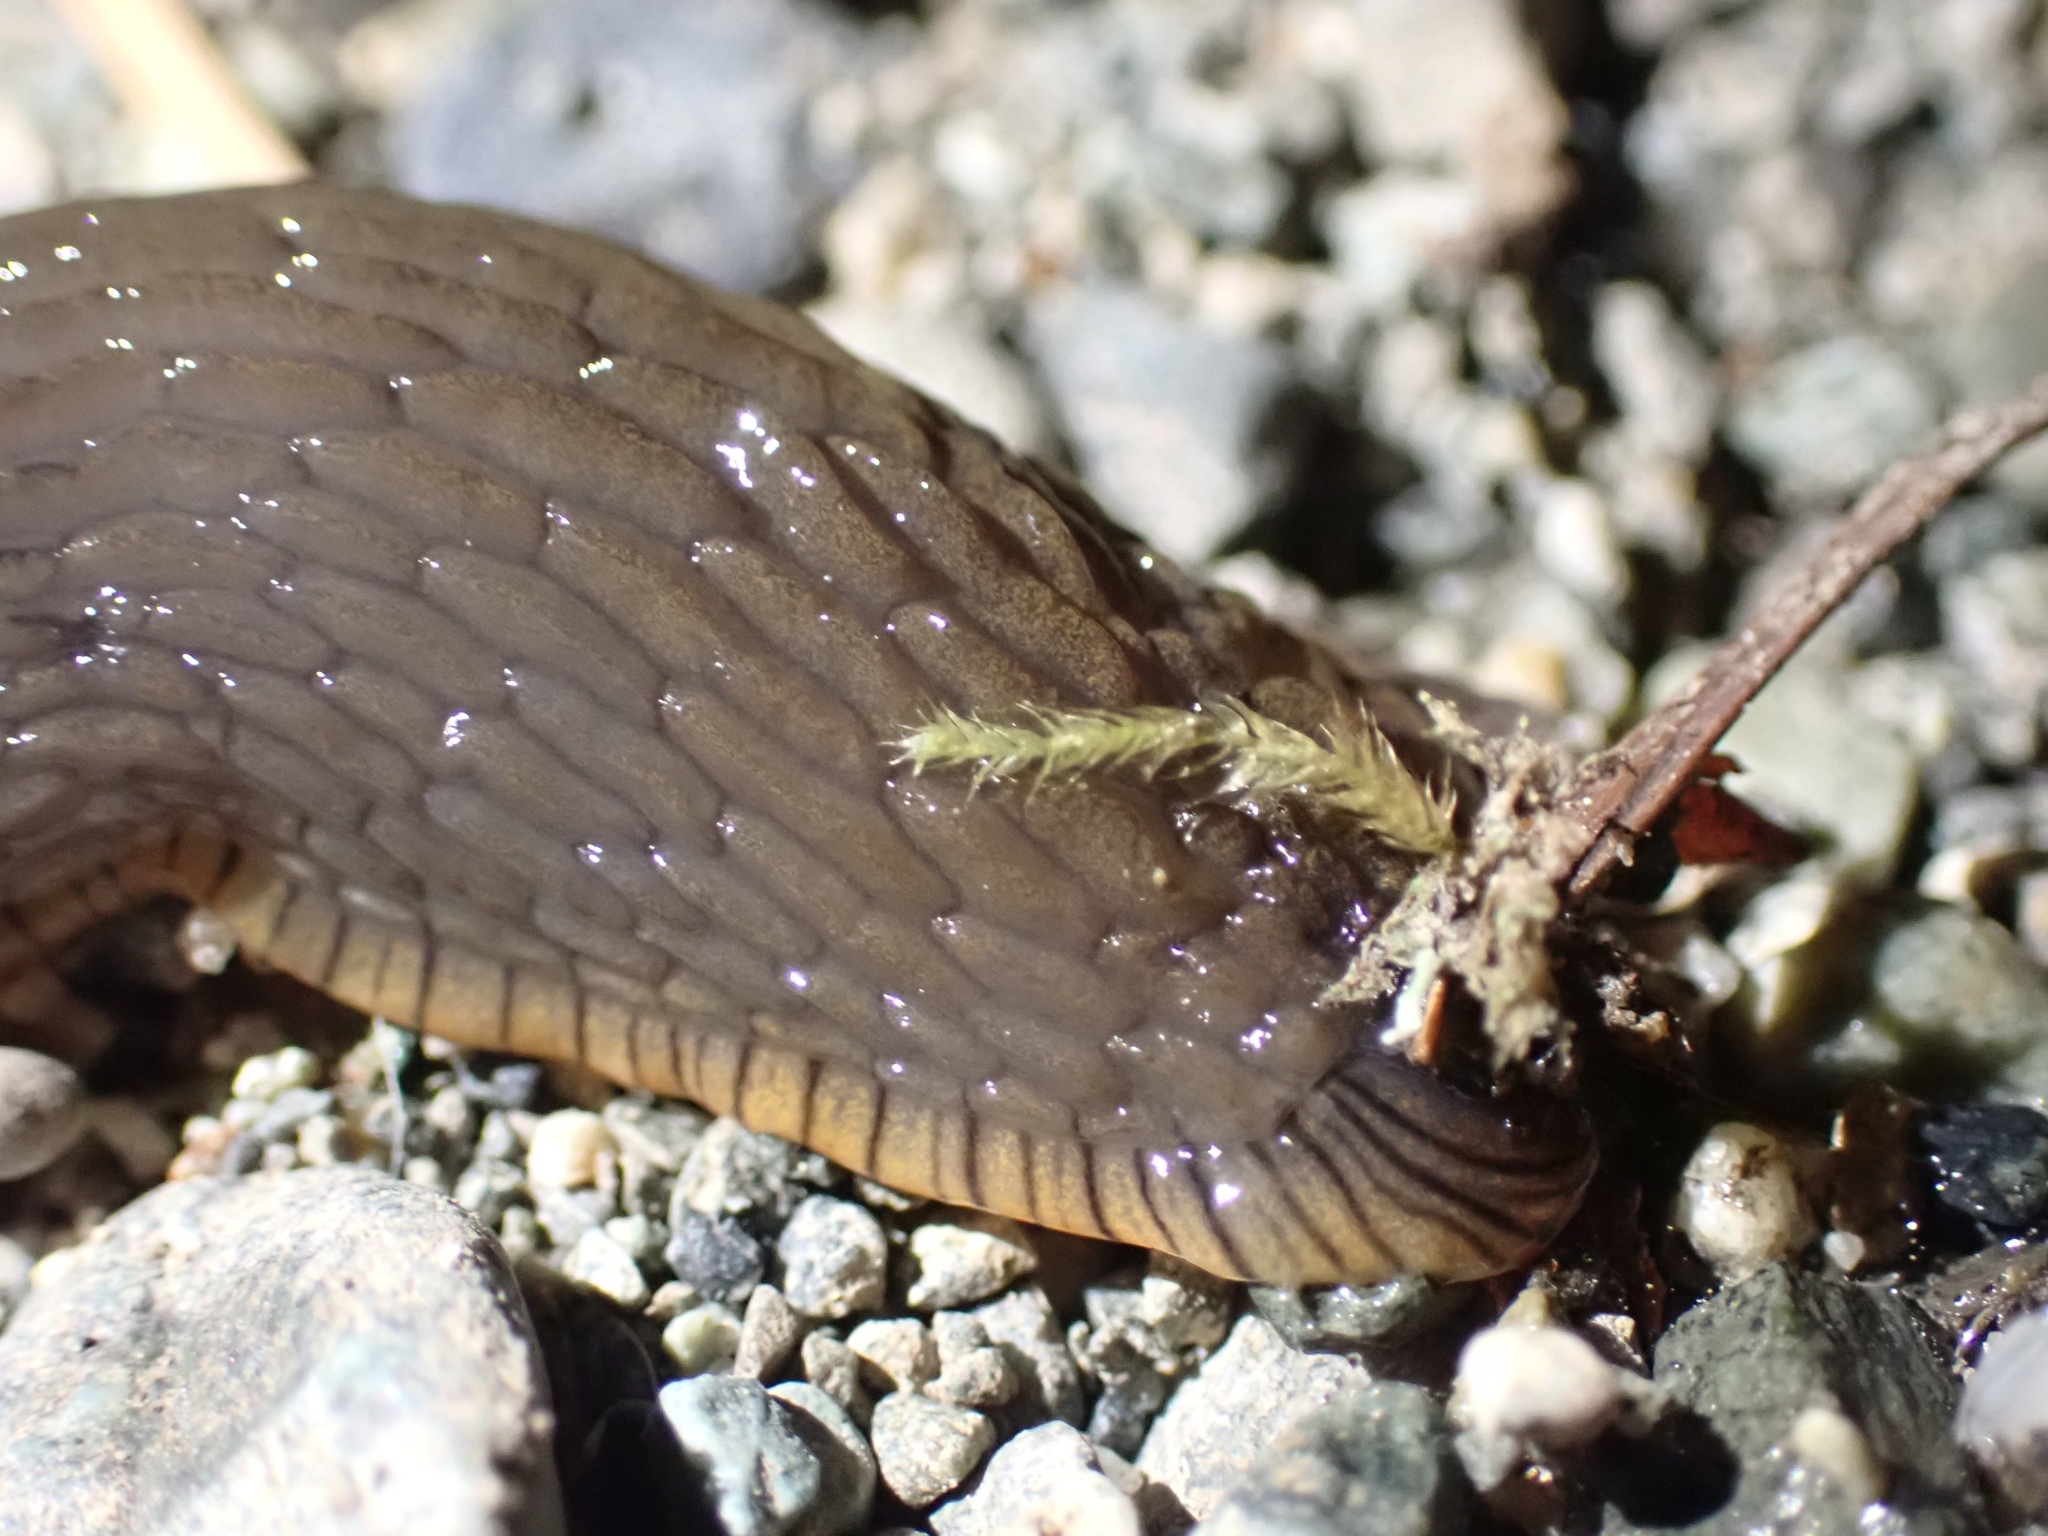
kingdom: Animalia
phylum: Mollusca
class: Gastropoda
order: Stylommatophora
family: Arionidae
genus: Arion
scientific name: Arion
